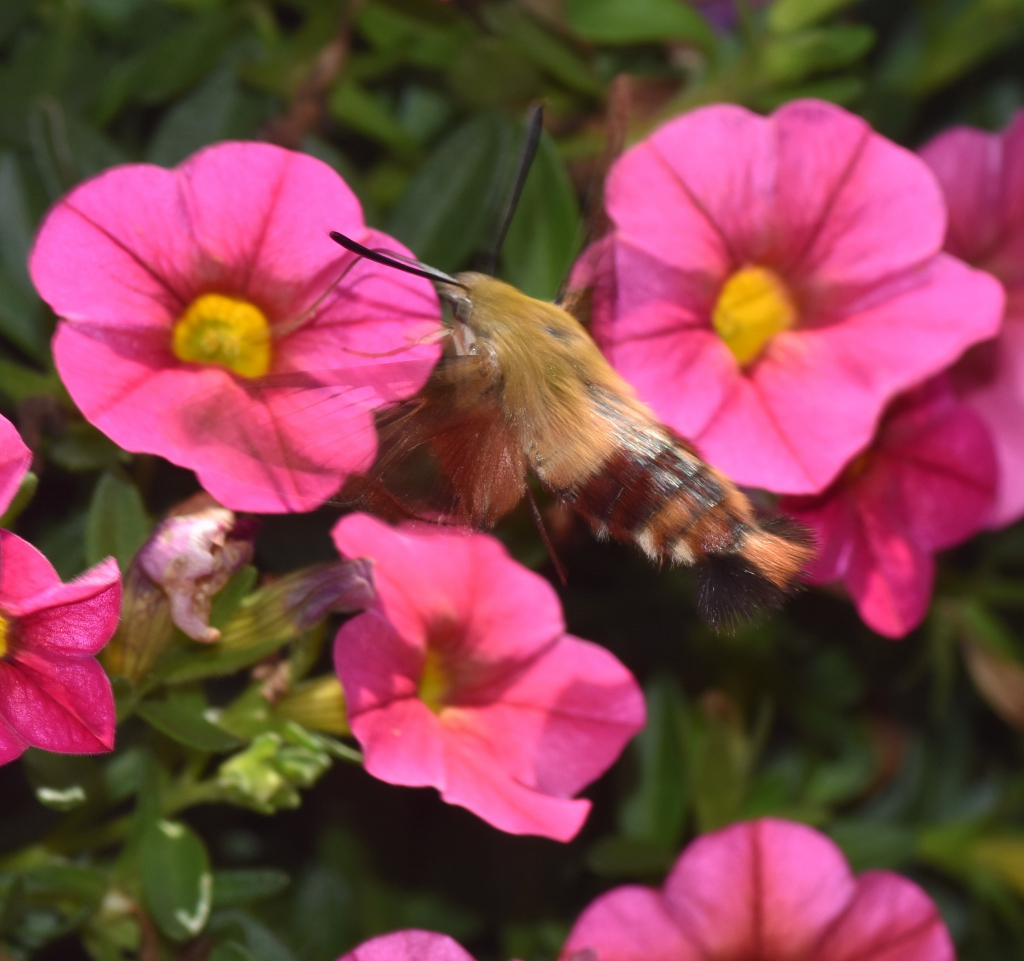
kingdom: Animalia
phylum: Arthropoda
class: Insecta
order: Lepidoptera
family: Sphingidae
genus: Hemaris
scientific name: Hemaris thysbe
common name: Common clear-wing
